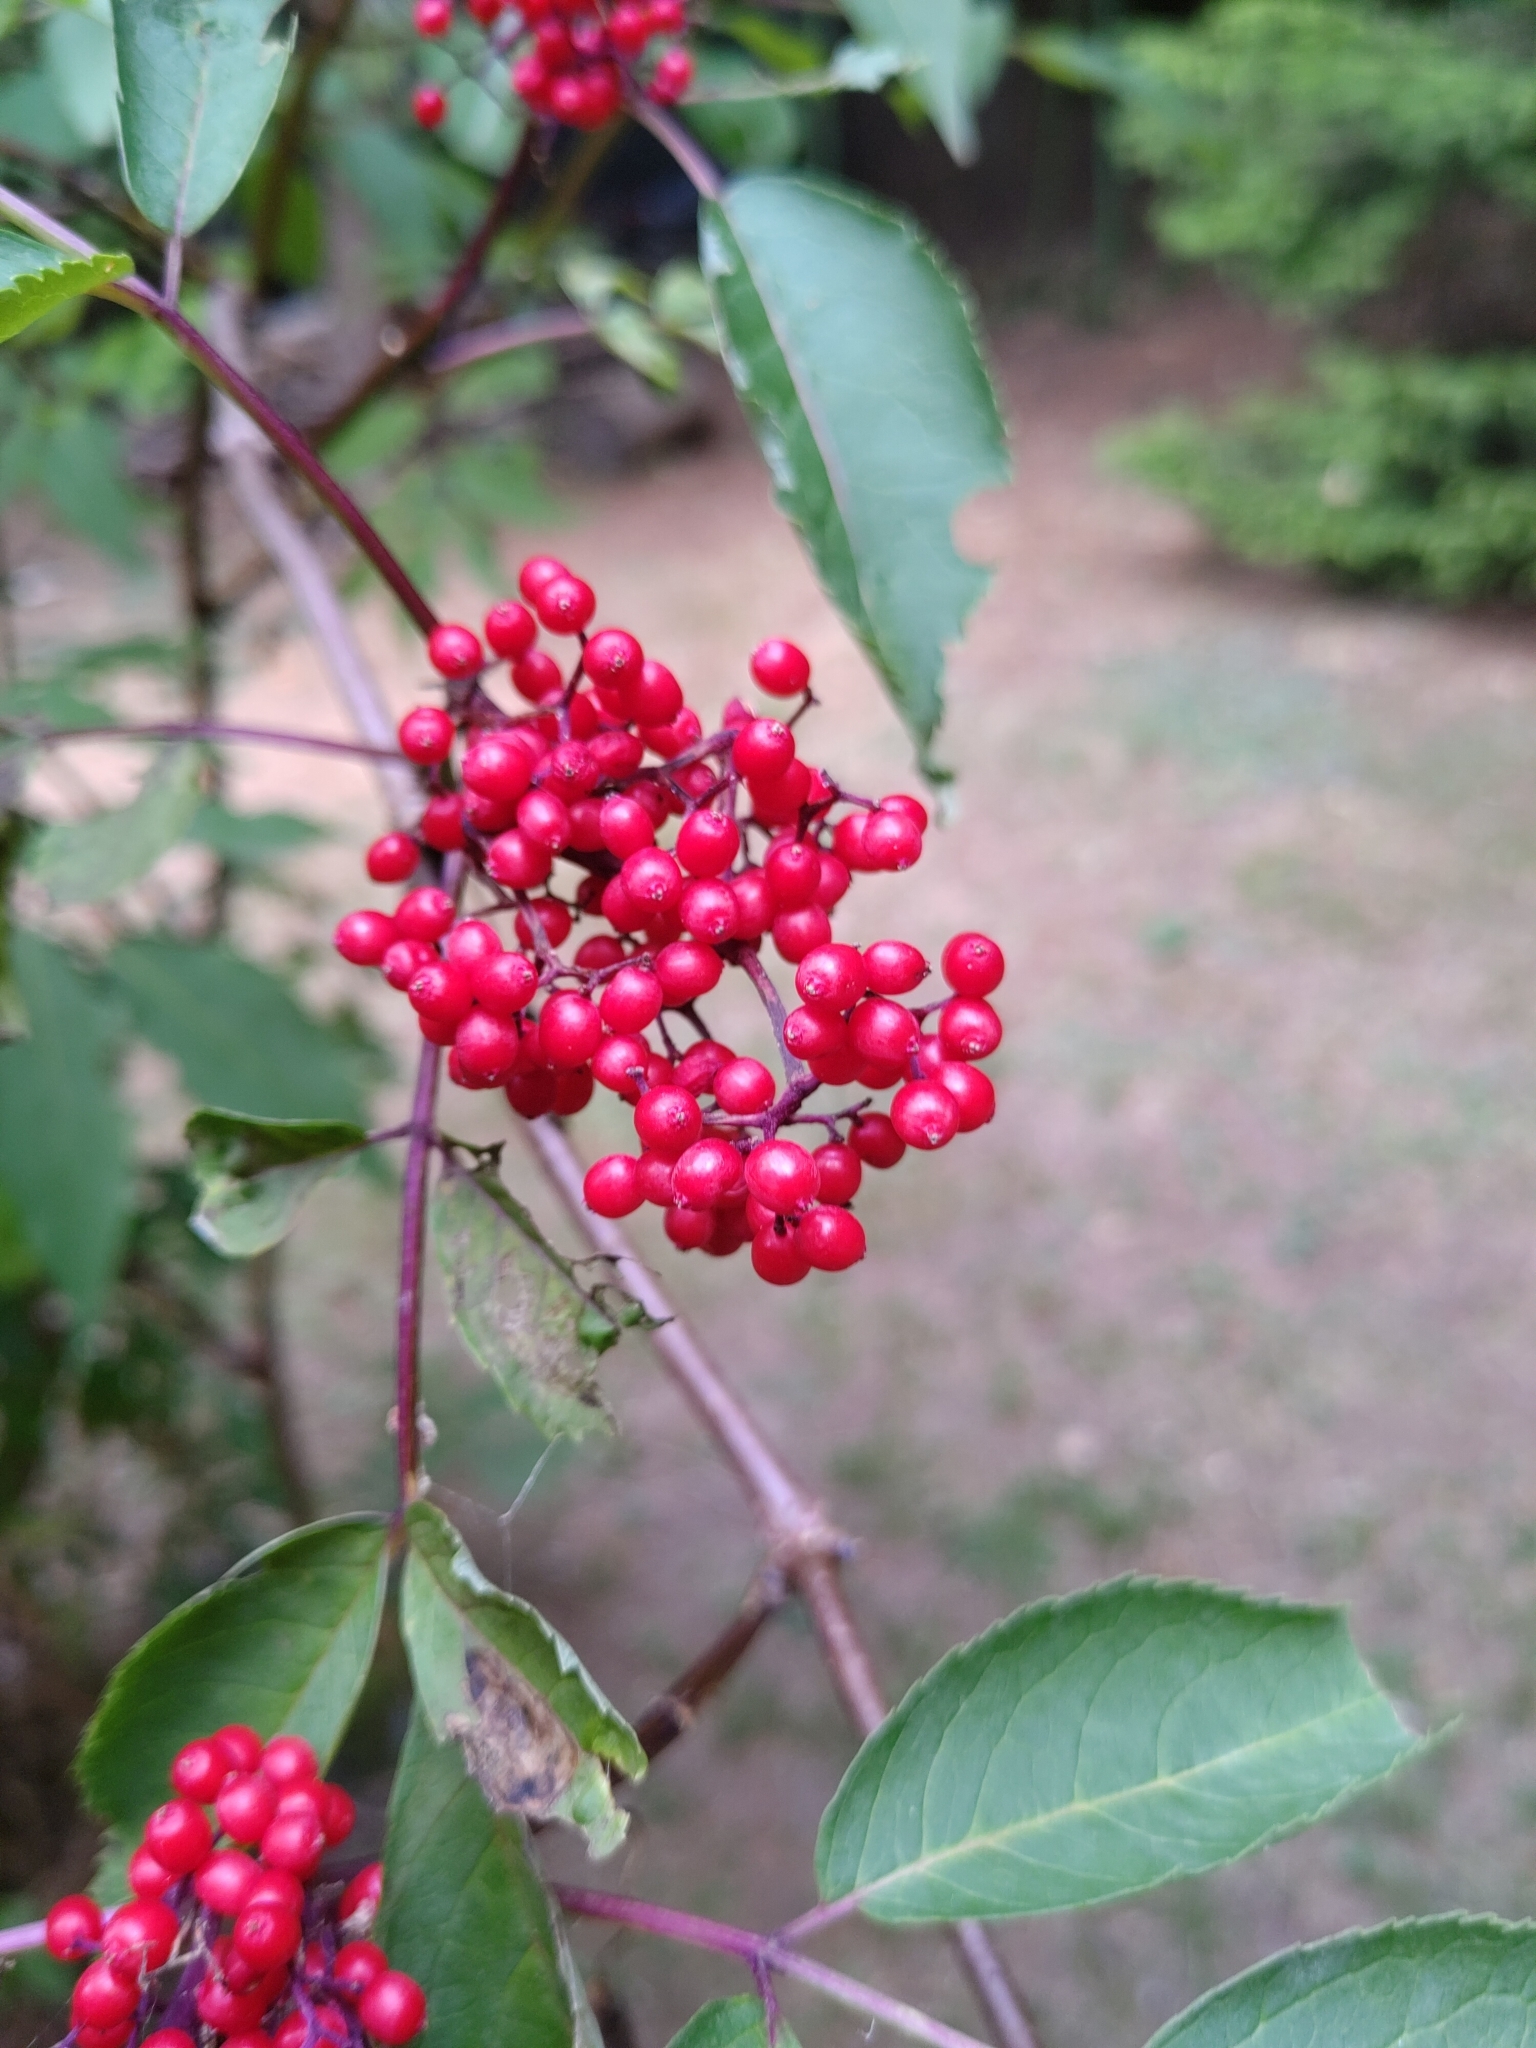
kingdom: Plantae
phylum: Tracheophyta
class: Magnoliopsida
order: Dipsacales
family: Viburnaceae
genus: Sambucus
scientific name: Sambucus racemosa
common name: Red-berried elder
